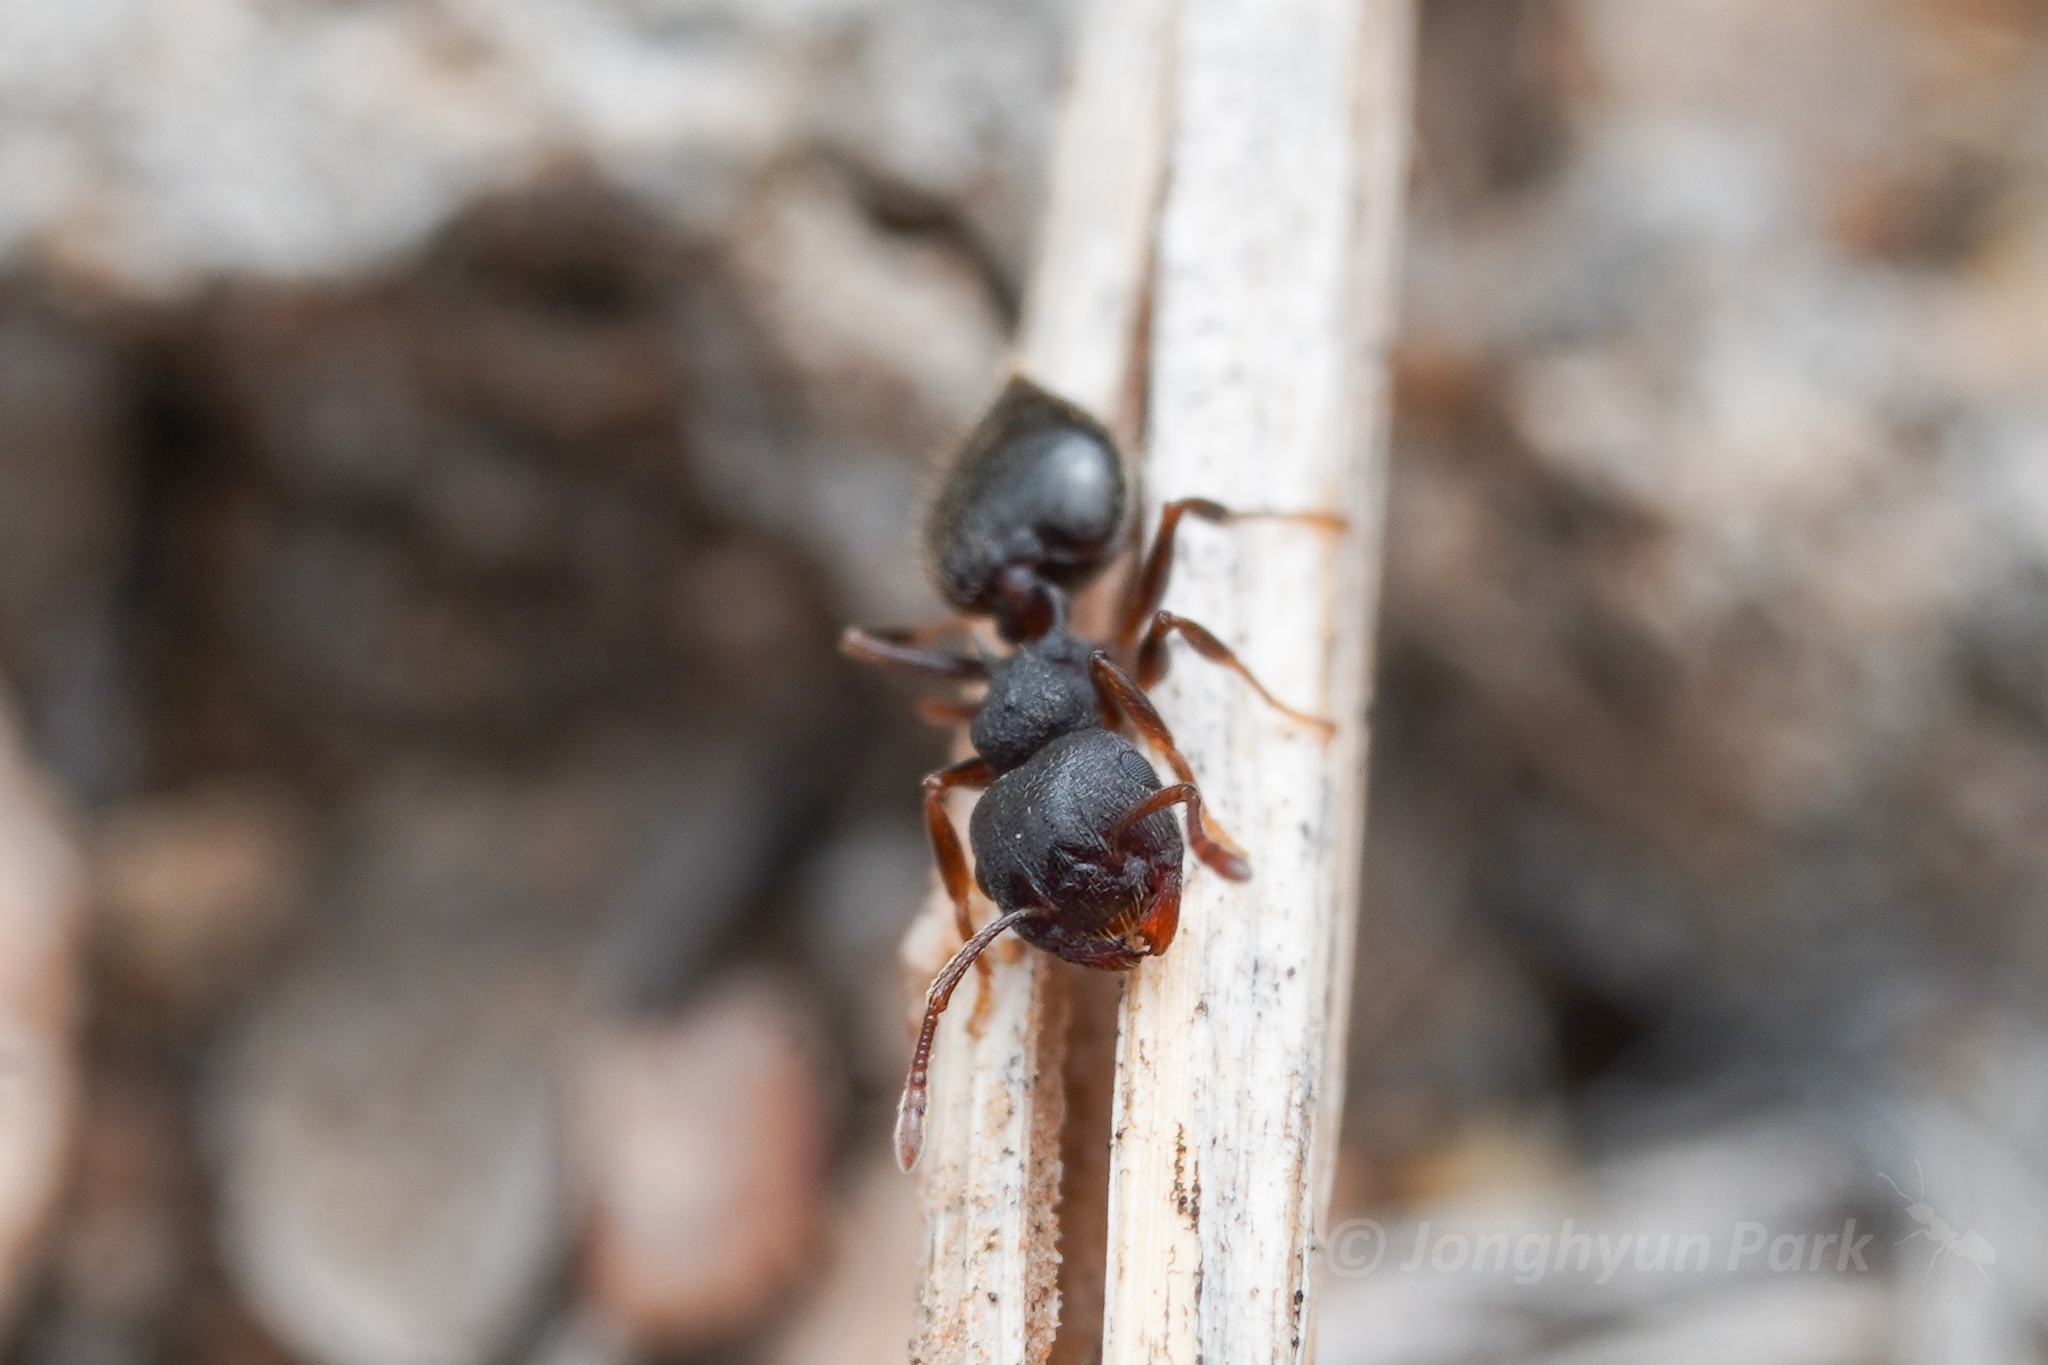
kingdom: Animalia
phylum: Arthropoda
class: Insecta
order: Hymenoptera
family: Formicidae
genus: Crematogaster
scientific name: Crematogaster dentinodis
